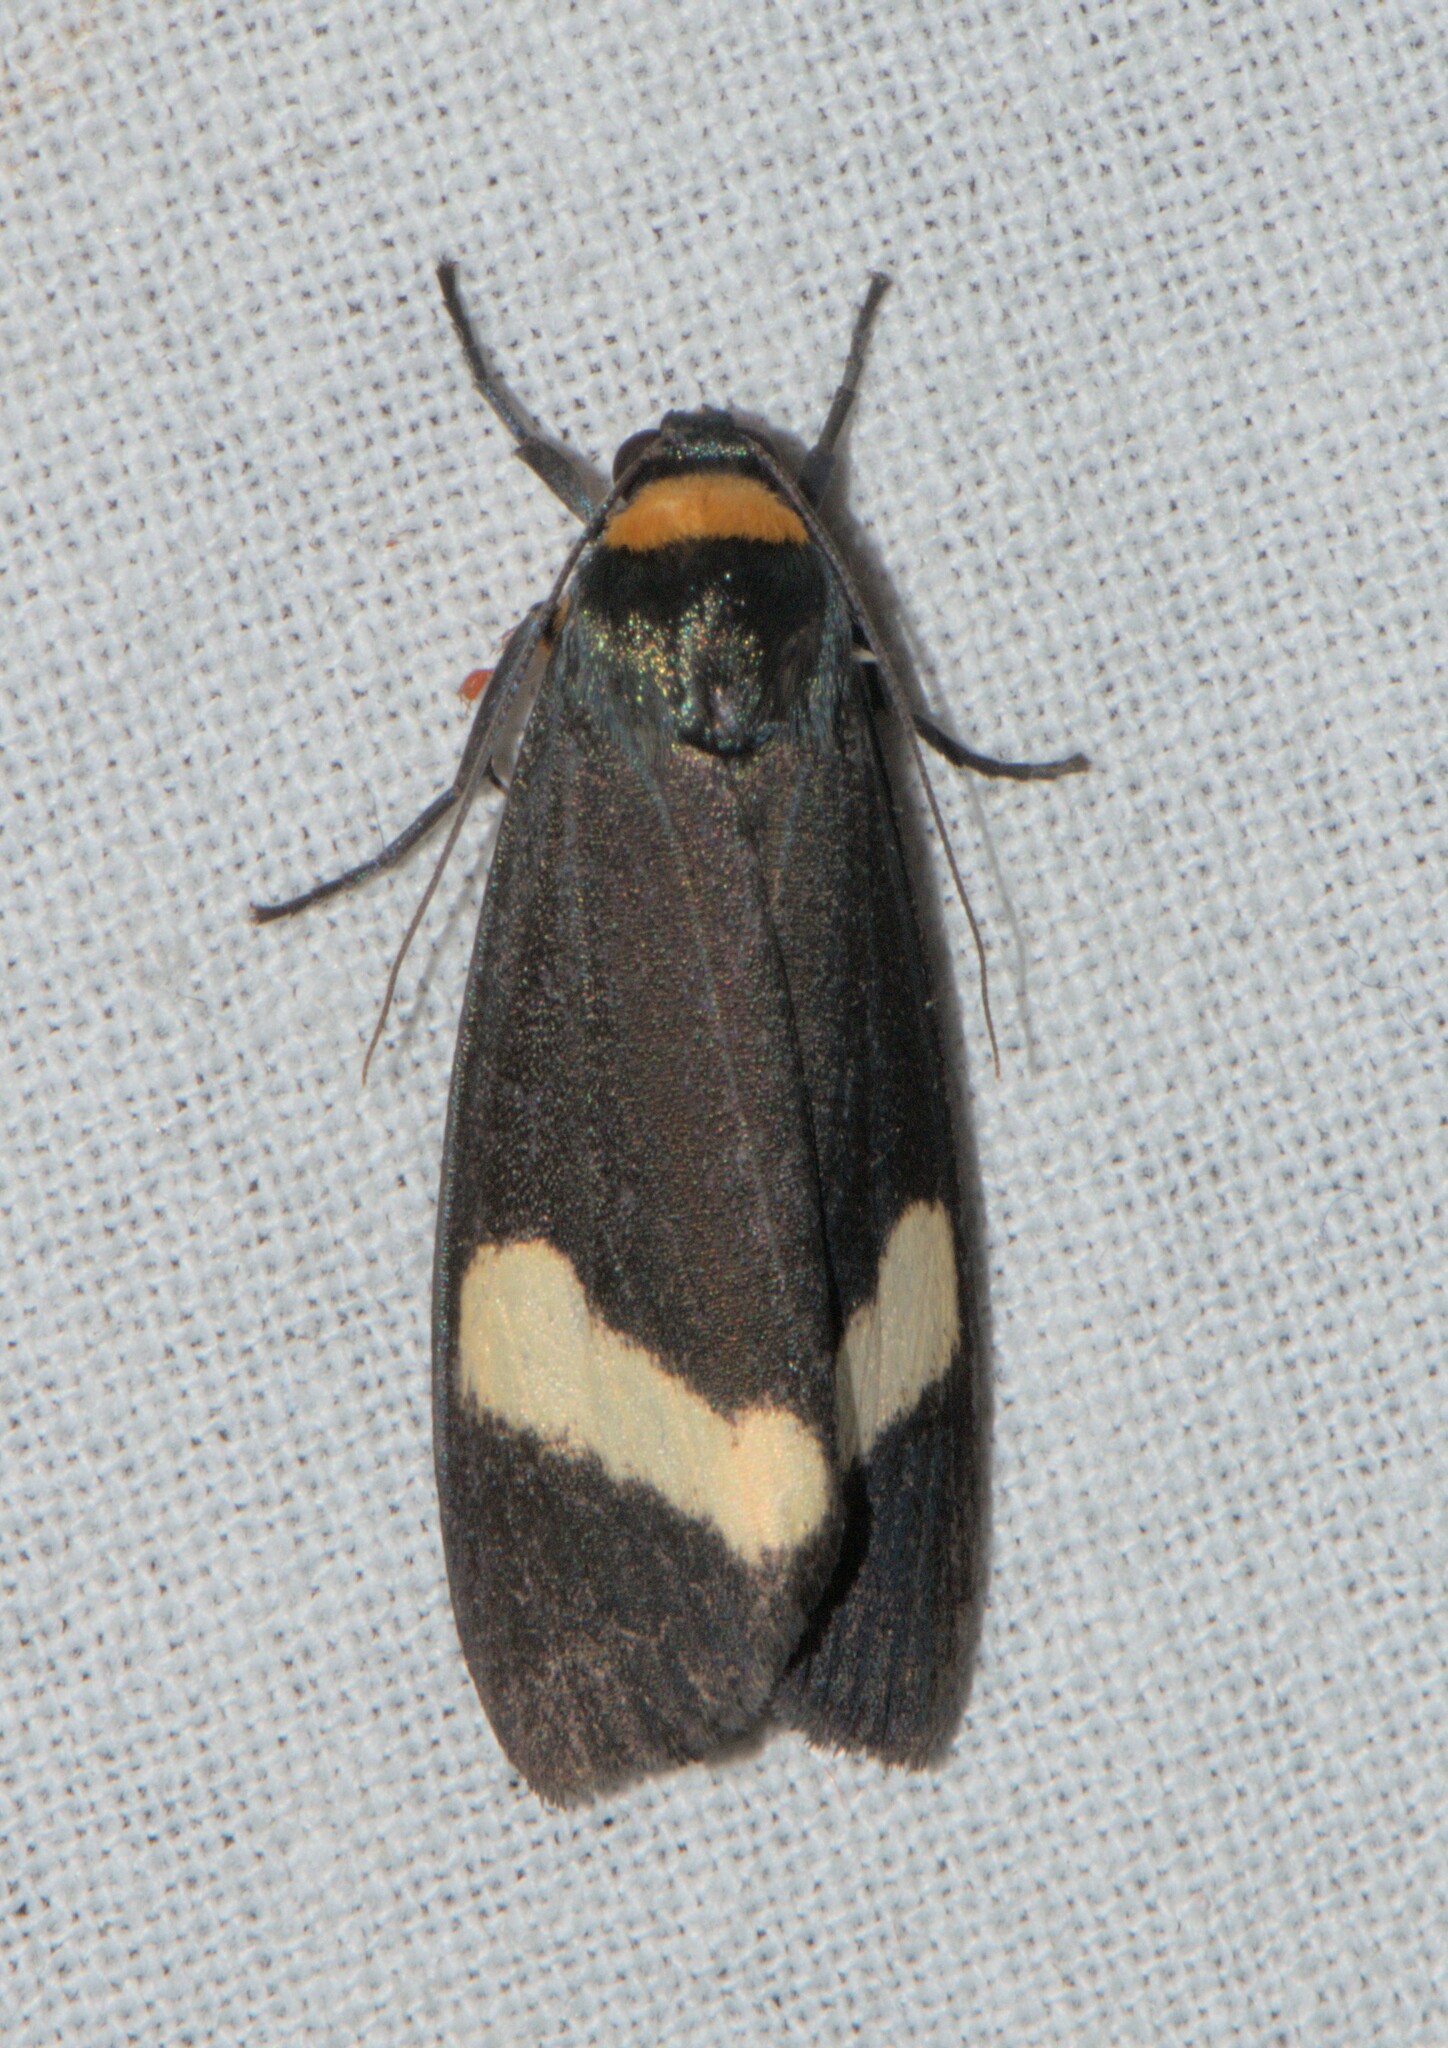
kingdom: Animalia
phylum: Arthropoda
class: Insecta
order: Lepidoptera
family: Erebidae
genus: Macrobrochis
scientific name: Macrobrochis albifascia
